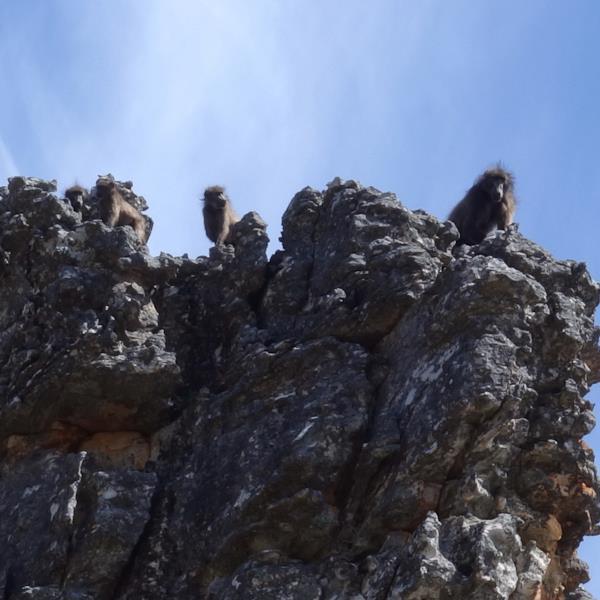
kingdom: Animalia
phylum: Chordata
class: Mammalia
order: Primates
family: Cercopithecidae
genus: Papio
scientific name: Papio ursinus
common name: Chacma baboon
